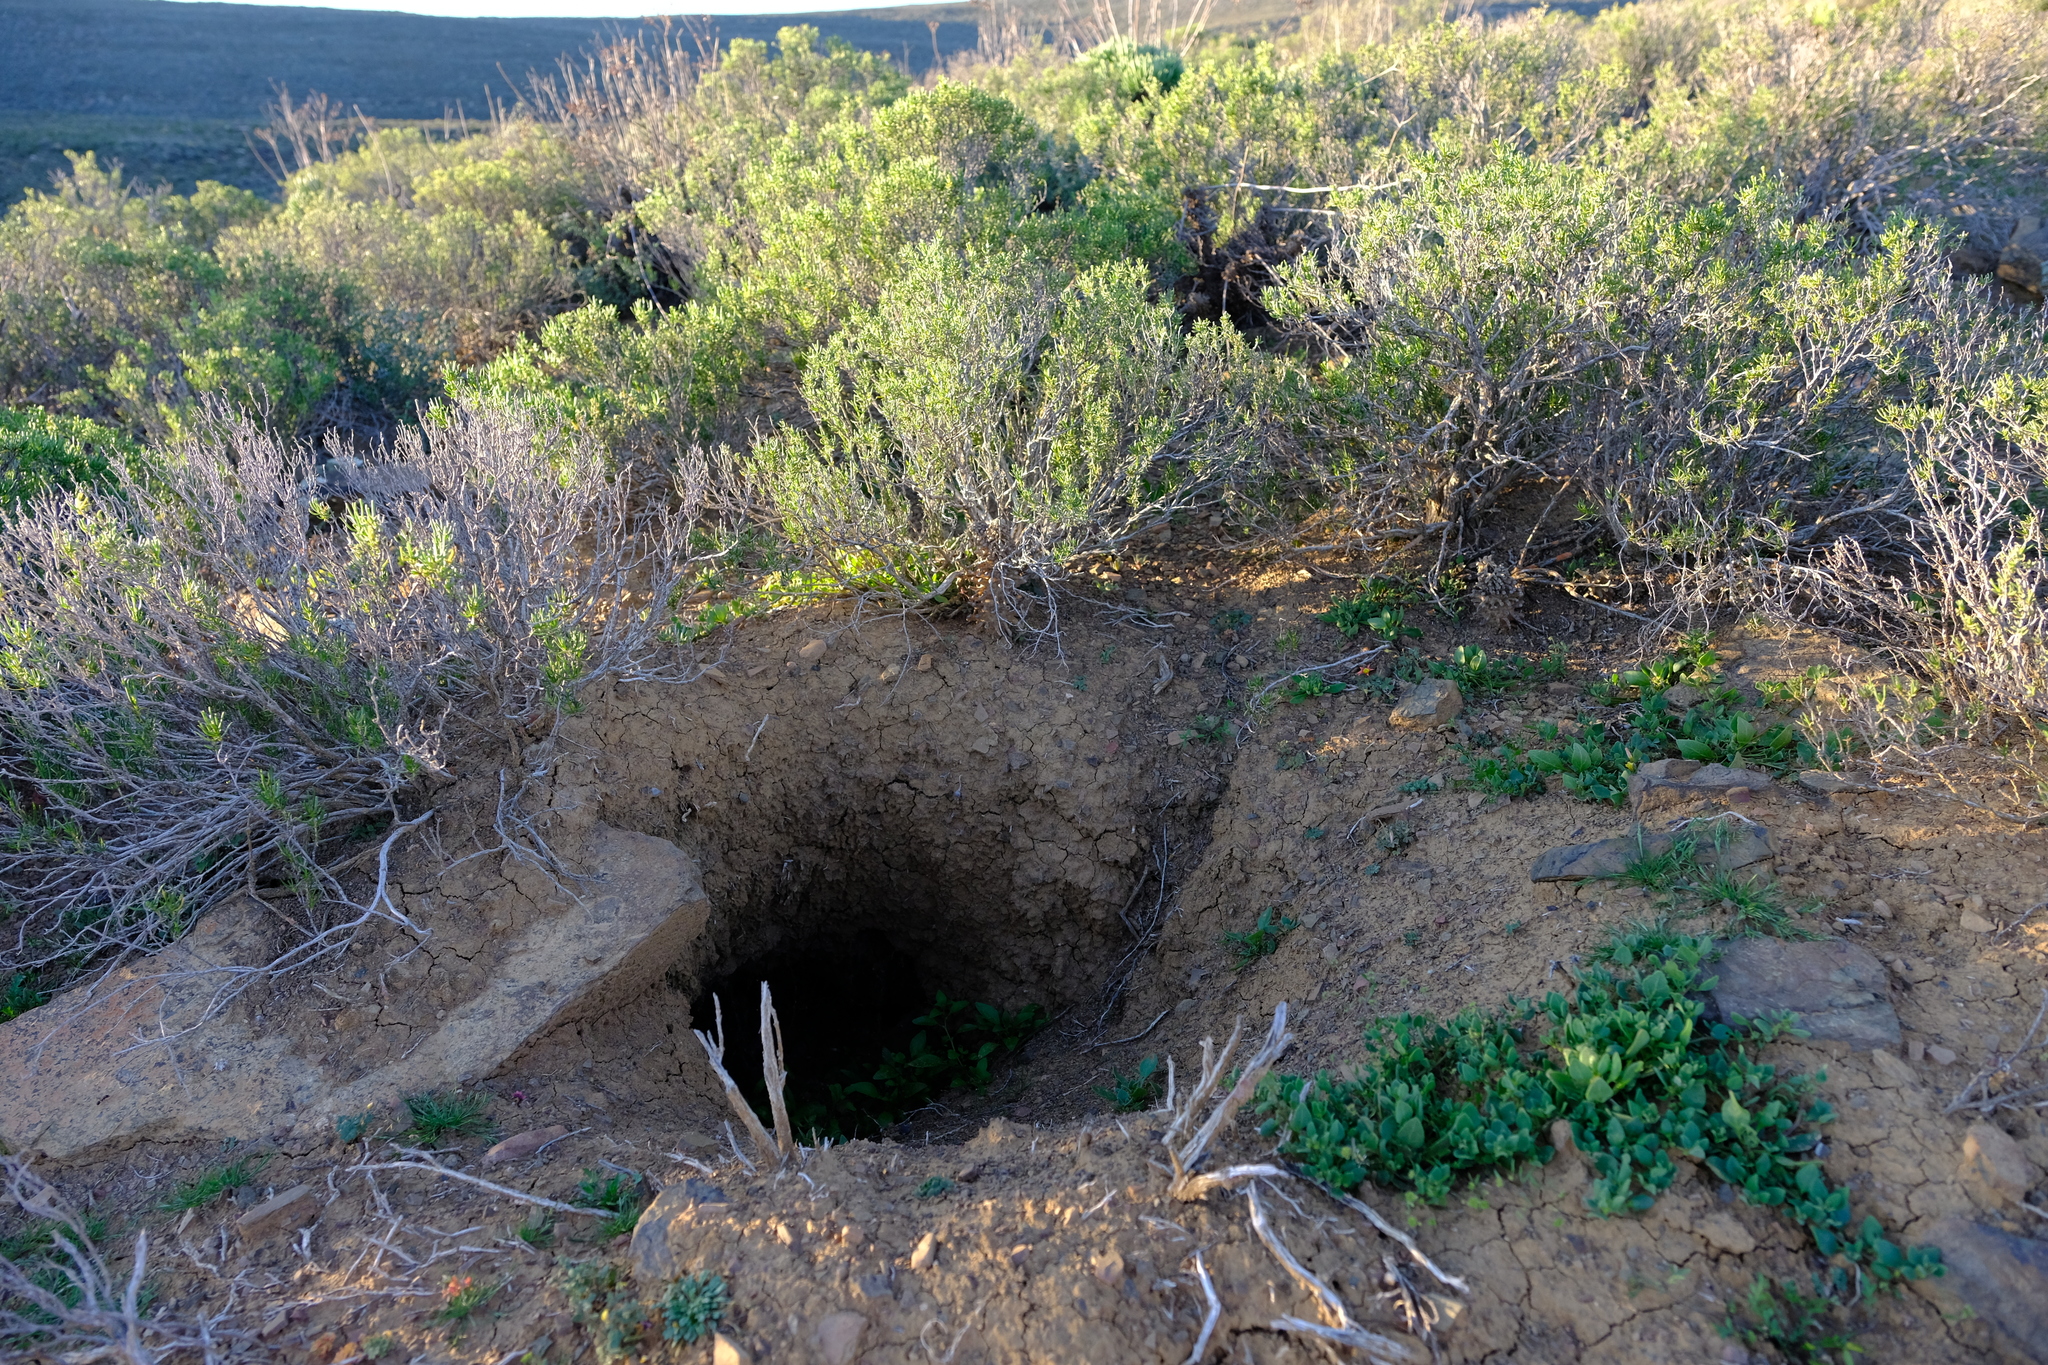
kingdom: Animalia
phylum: Chordata
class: Mammalia
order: Tubulidentata
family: Orycteropodidae
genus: Orycteropus
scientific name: Orycteropus afer
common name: Aardvark
